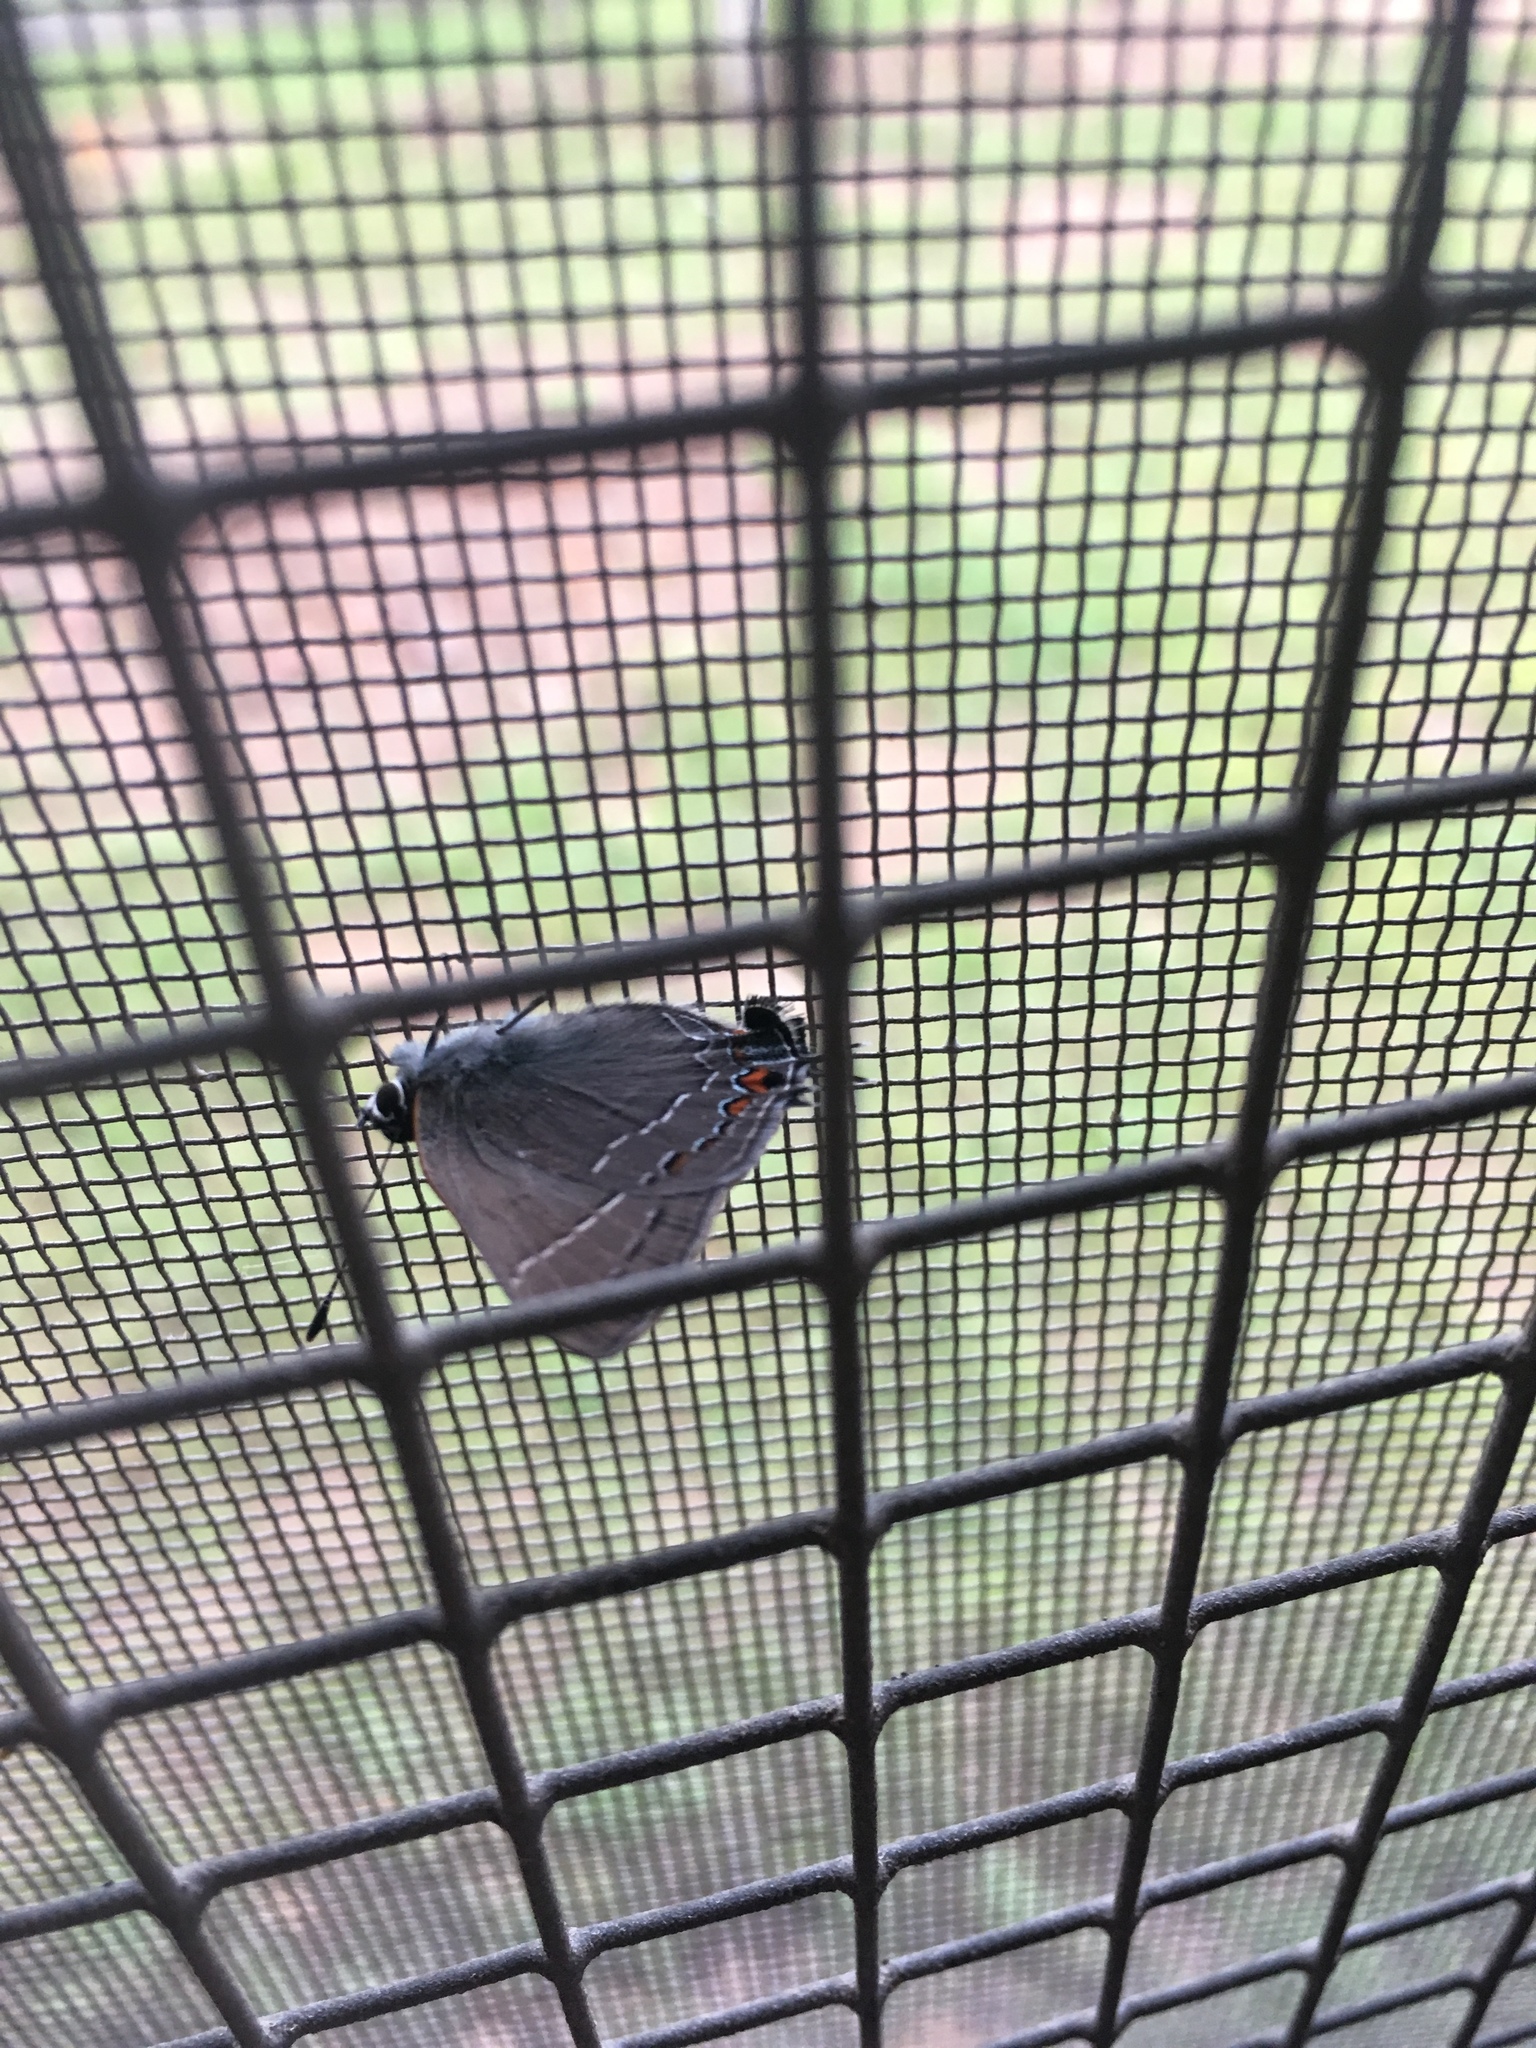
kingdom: Animalia
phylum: Arthropoda
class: Insecta
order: Lepidoptera
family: Lycaenidae
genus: Fixsenia
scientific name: Fixsenia favonius
